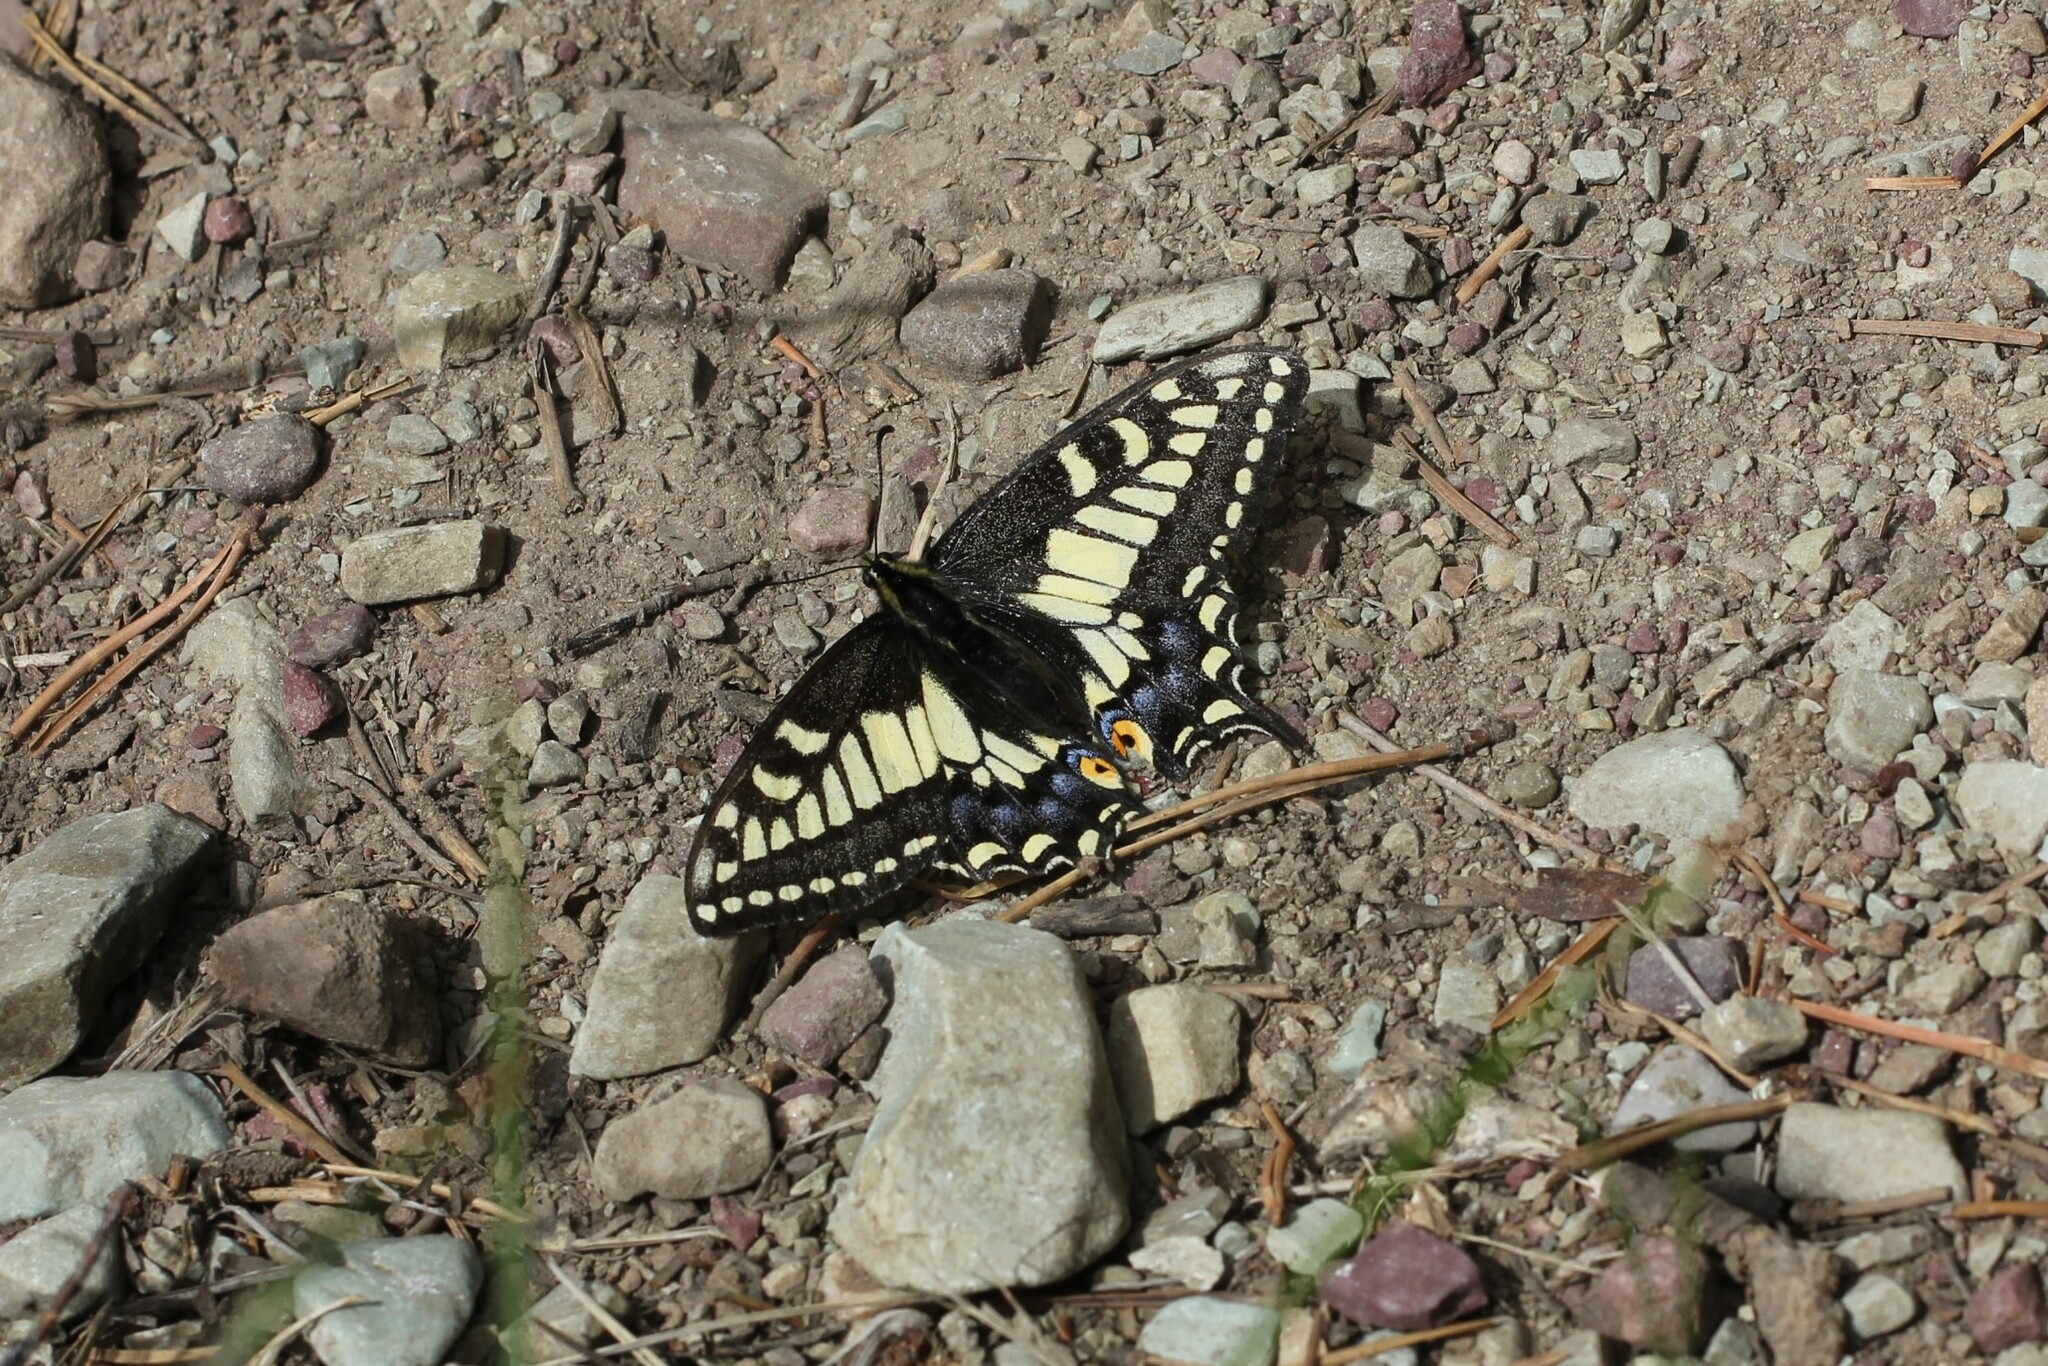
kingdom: Animalia
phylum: Arthropoda
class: Insecta
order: Lepidoptera
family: Papilionidae
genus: Papilio
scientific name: Papilio zelicaon
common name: Anise swallowtail
